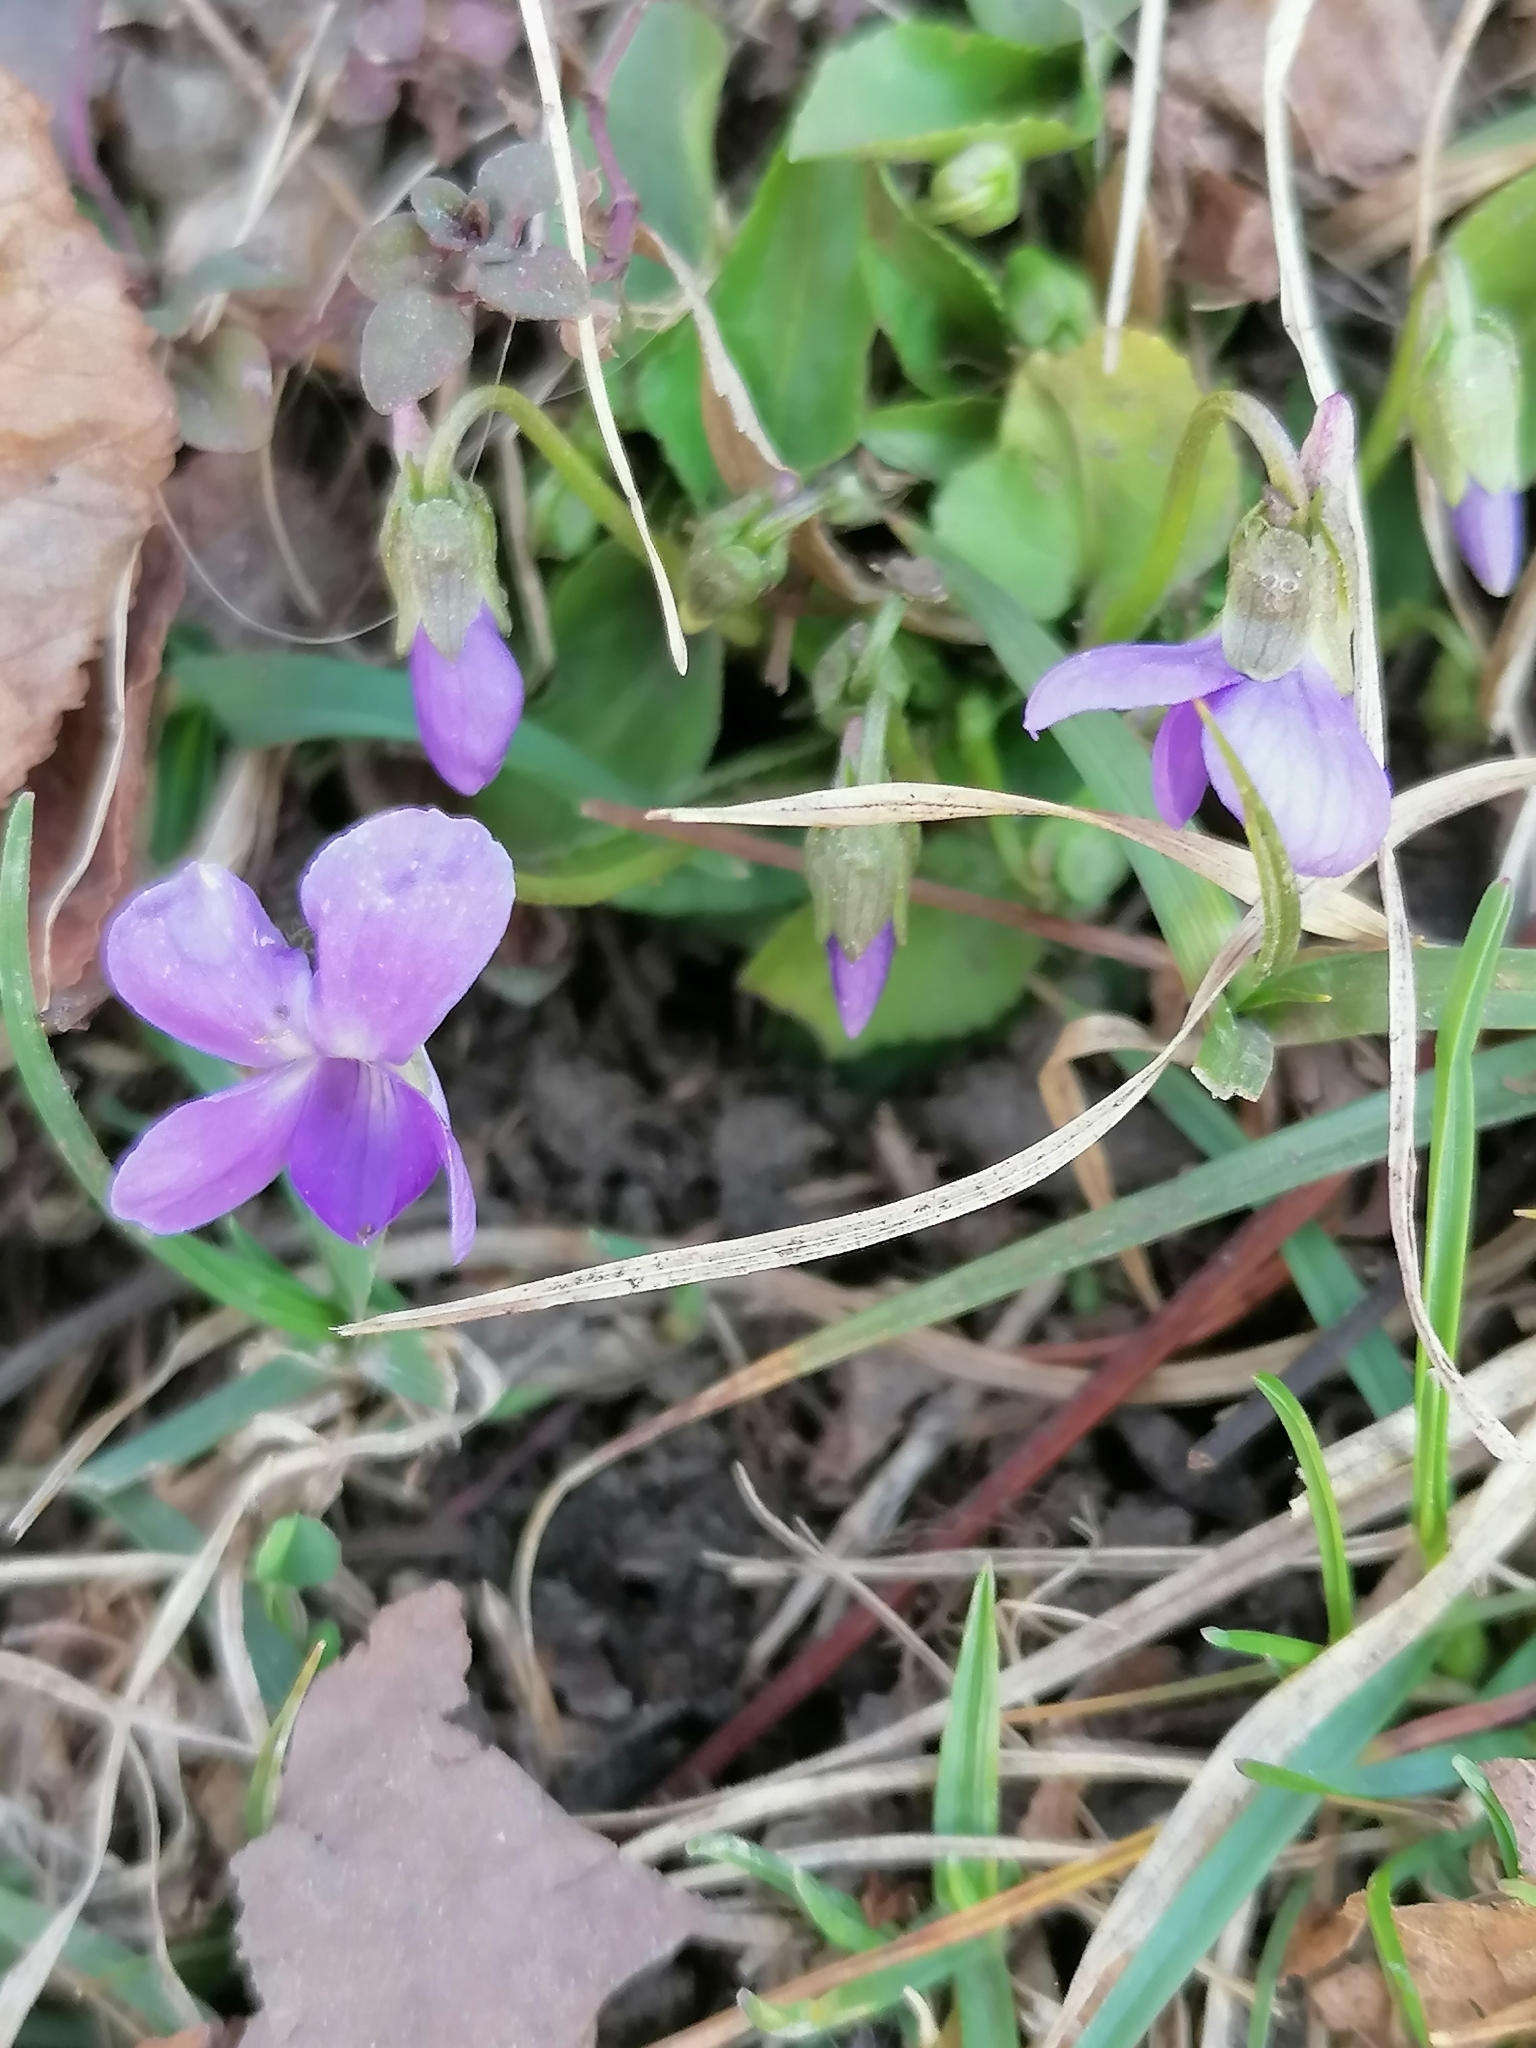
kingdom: Plantae
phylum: Tracheophyta
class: Magnoliopsida
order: Malpighiales
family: Violaceae
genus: Viola
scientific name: Viola hirta
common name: Hairy violet
